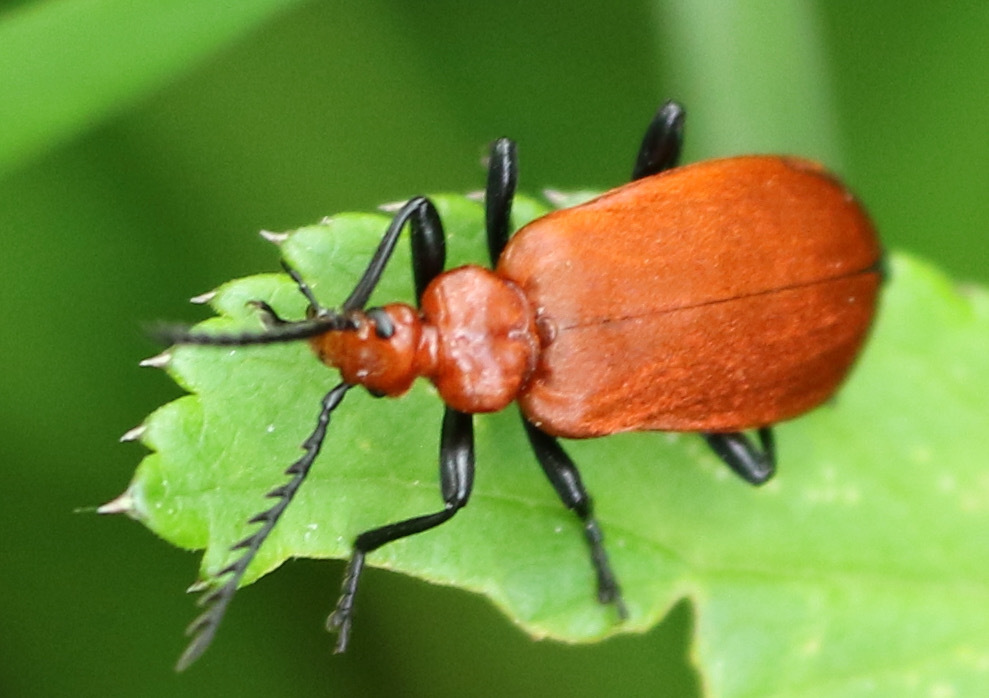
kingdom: Animalia
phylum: Arthropoda
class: Insecta
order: Coleoptera
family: Pyrochroidae
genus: Pyrochroa
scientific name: Pyrochroa serraticornis
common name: Red-headed cardinal beetle
